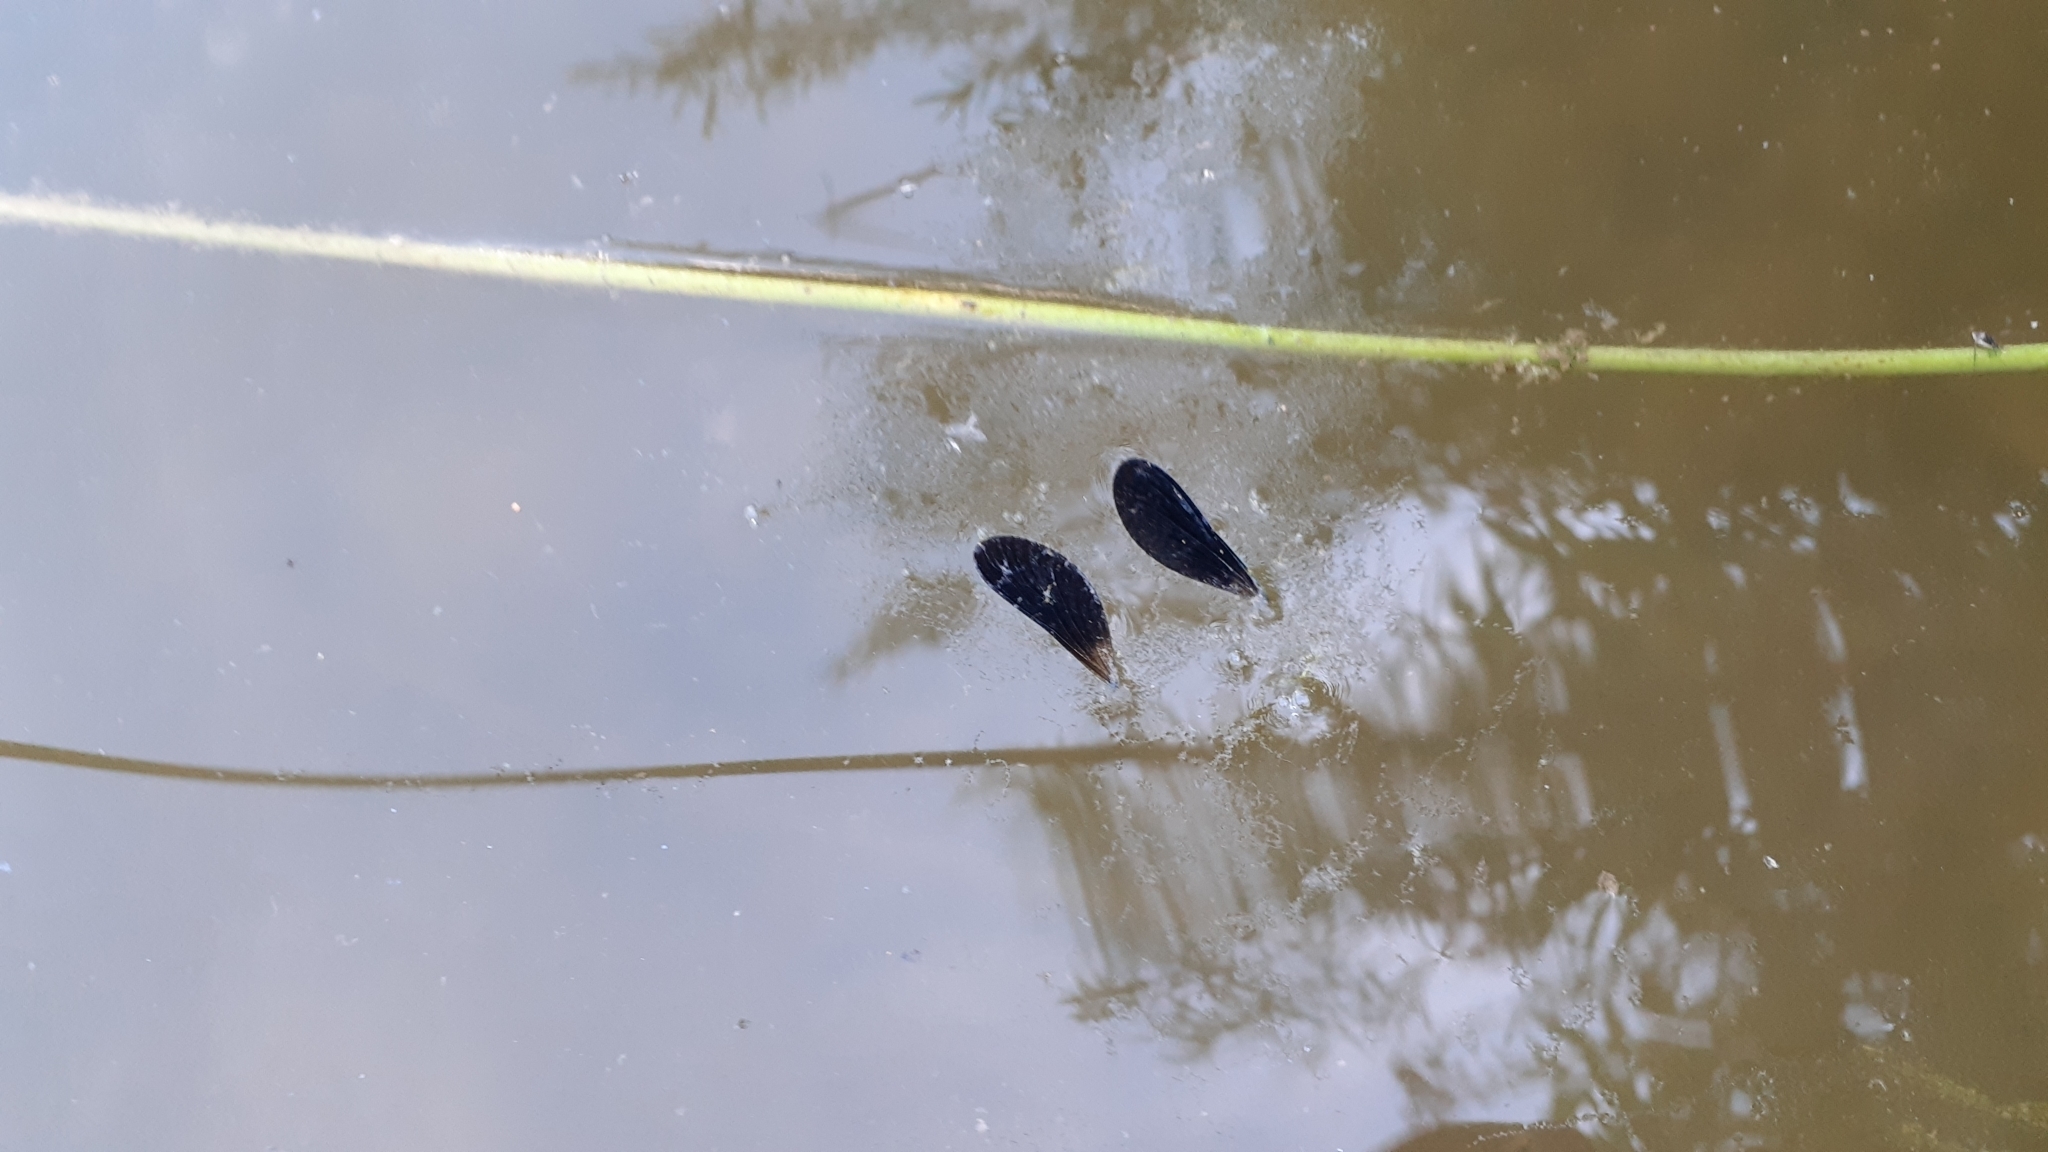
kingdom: Animalia
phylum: Arthropoda
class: Insecta
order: Odonata
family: Calopterygidae
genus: Calopteryx
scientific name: Calopteryx maculata
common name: Ebony jewelwing
